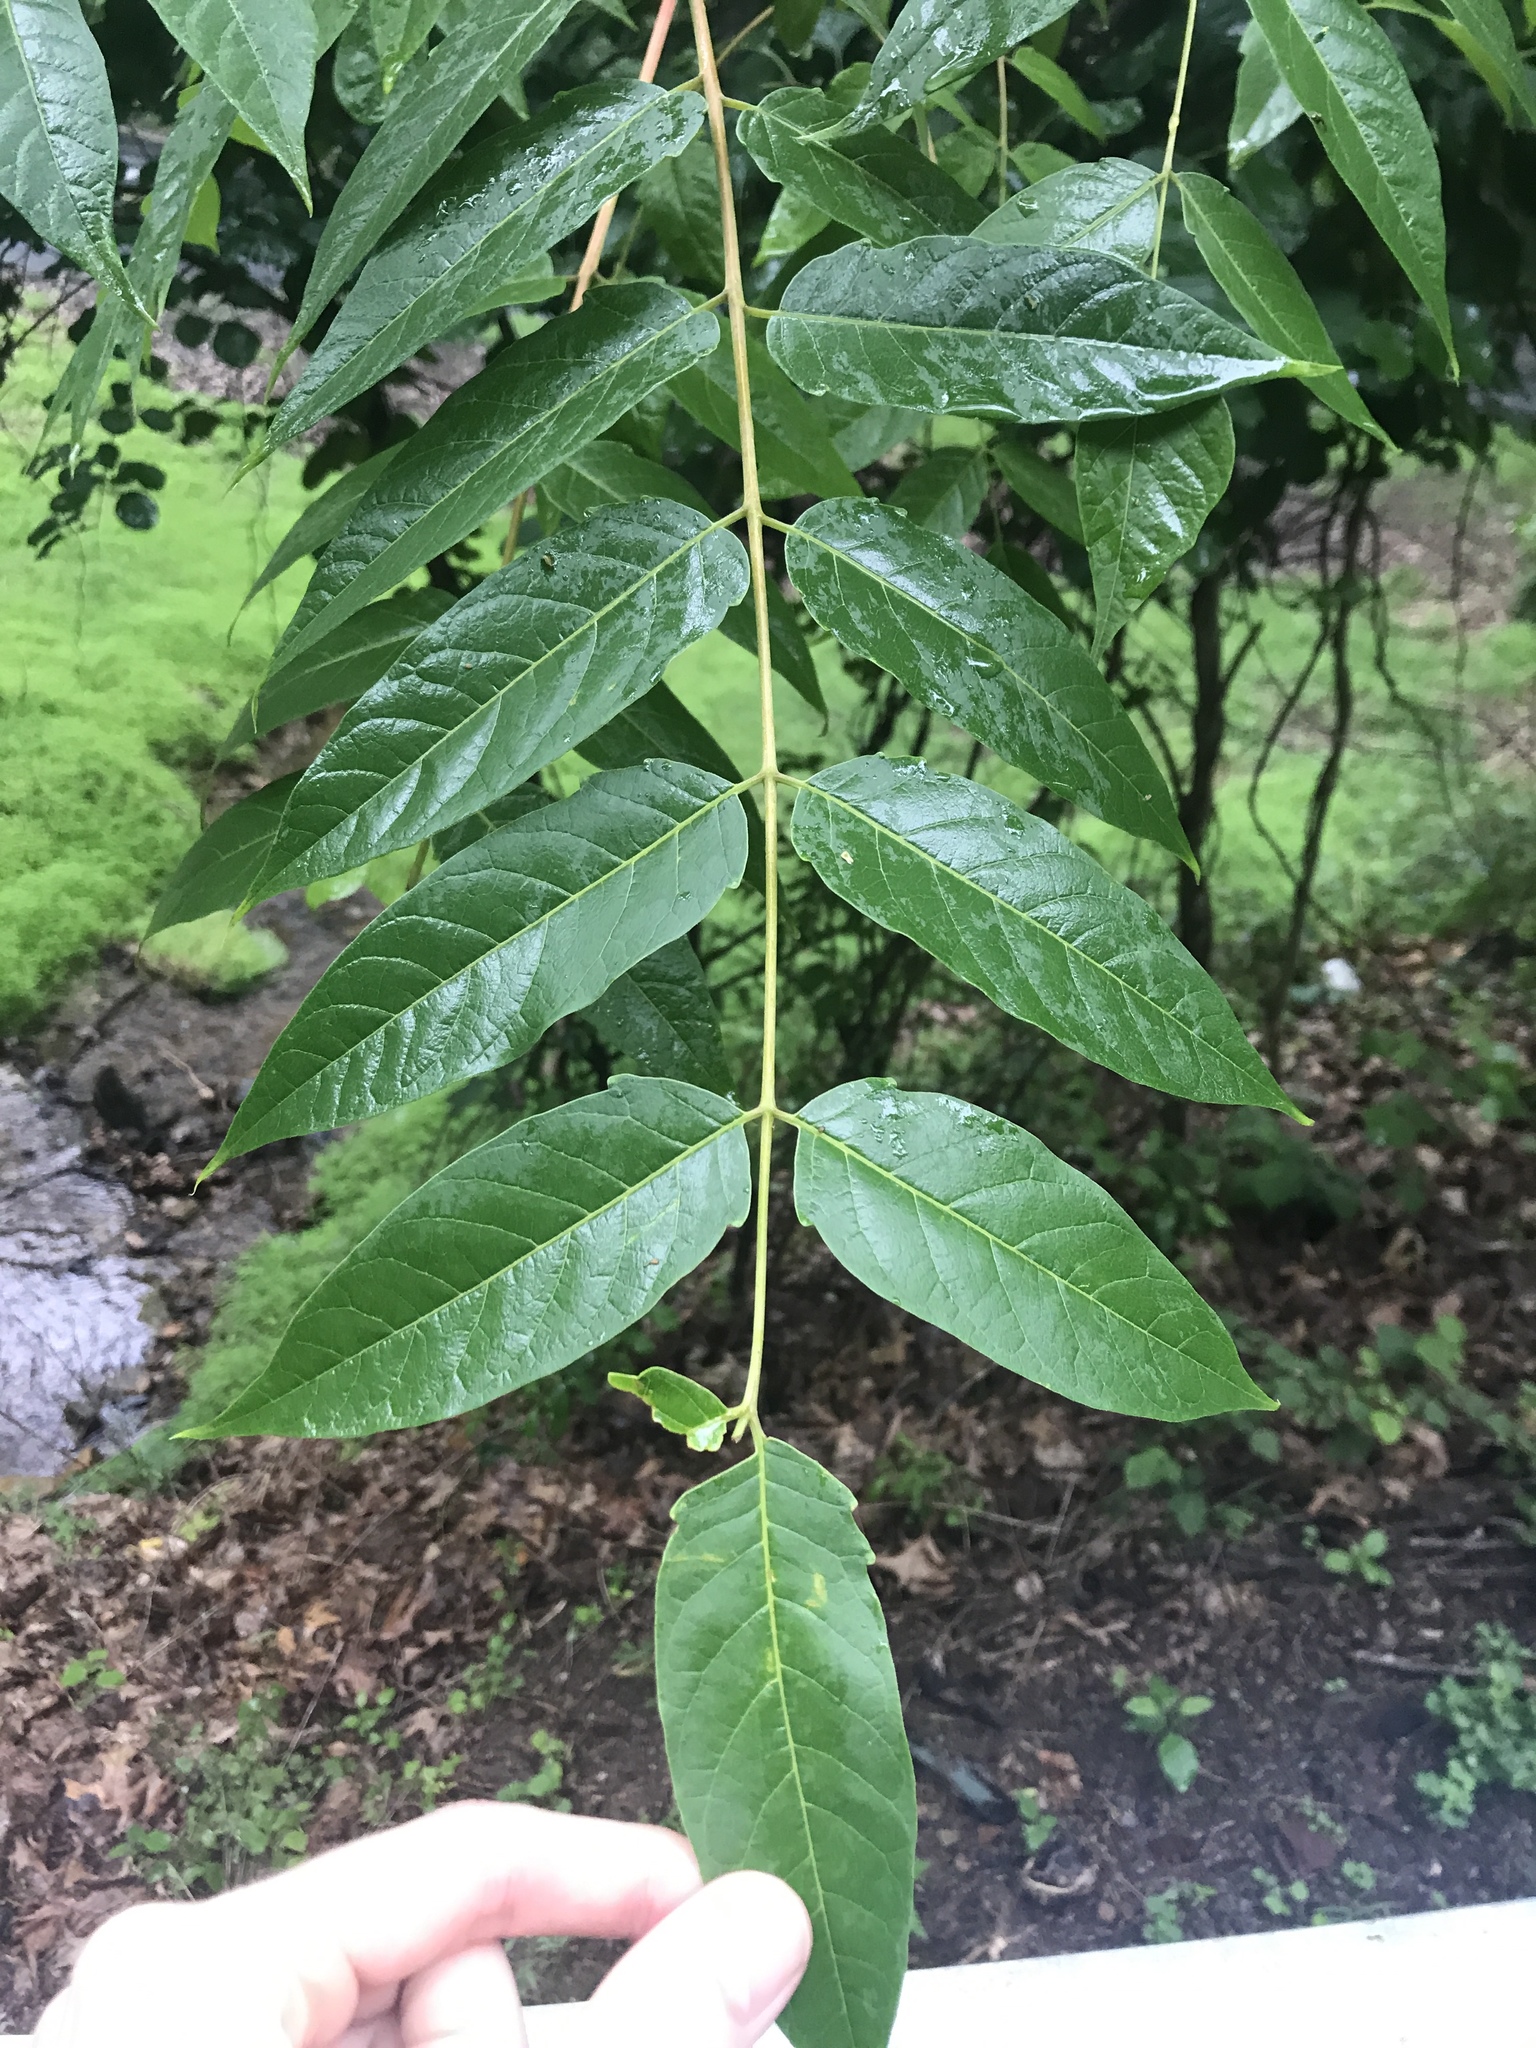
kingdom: Plantae
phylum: Tracheophyta
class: Magnoliopsida
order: Sapindales
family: Simaroubaceae
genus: Ailanthus
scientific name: Ailanthus altissima
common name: Tree-of-heaven
